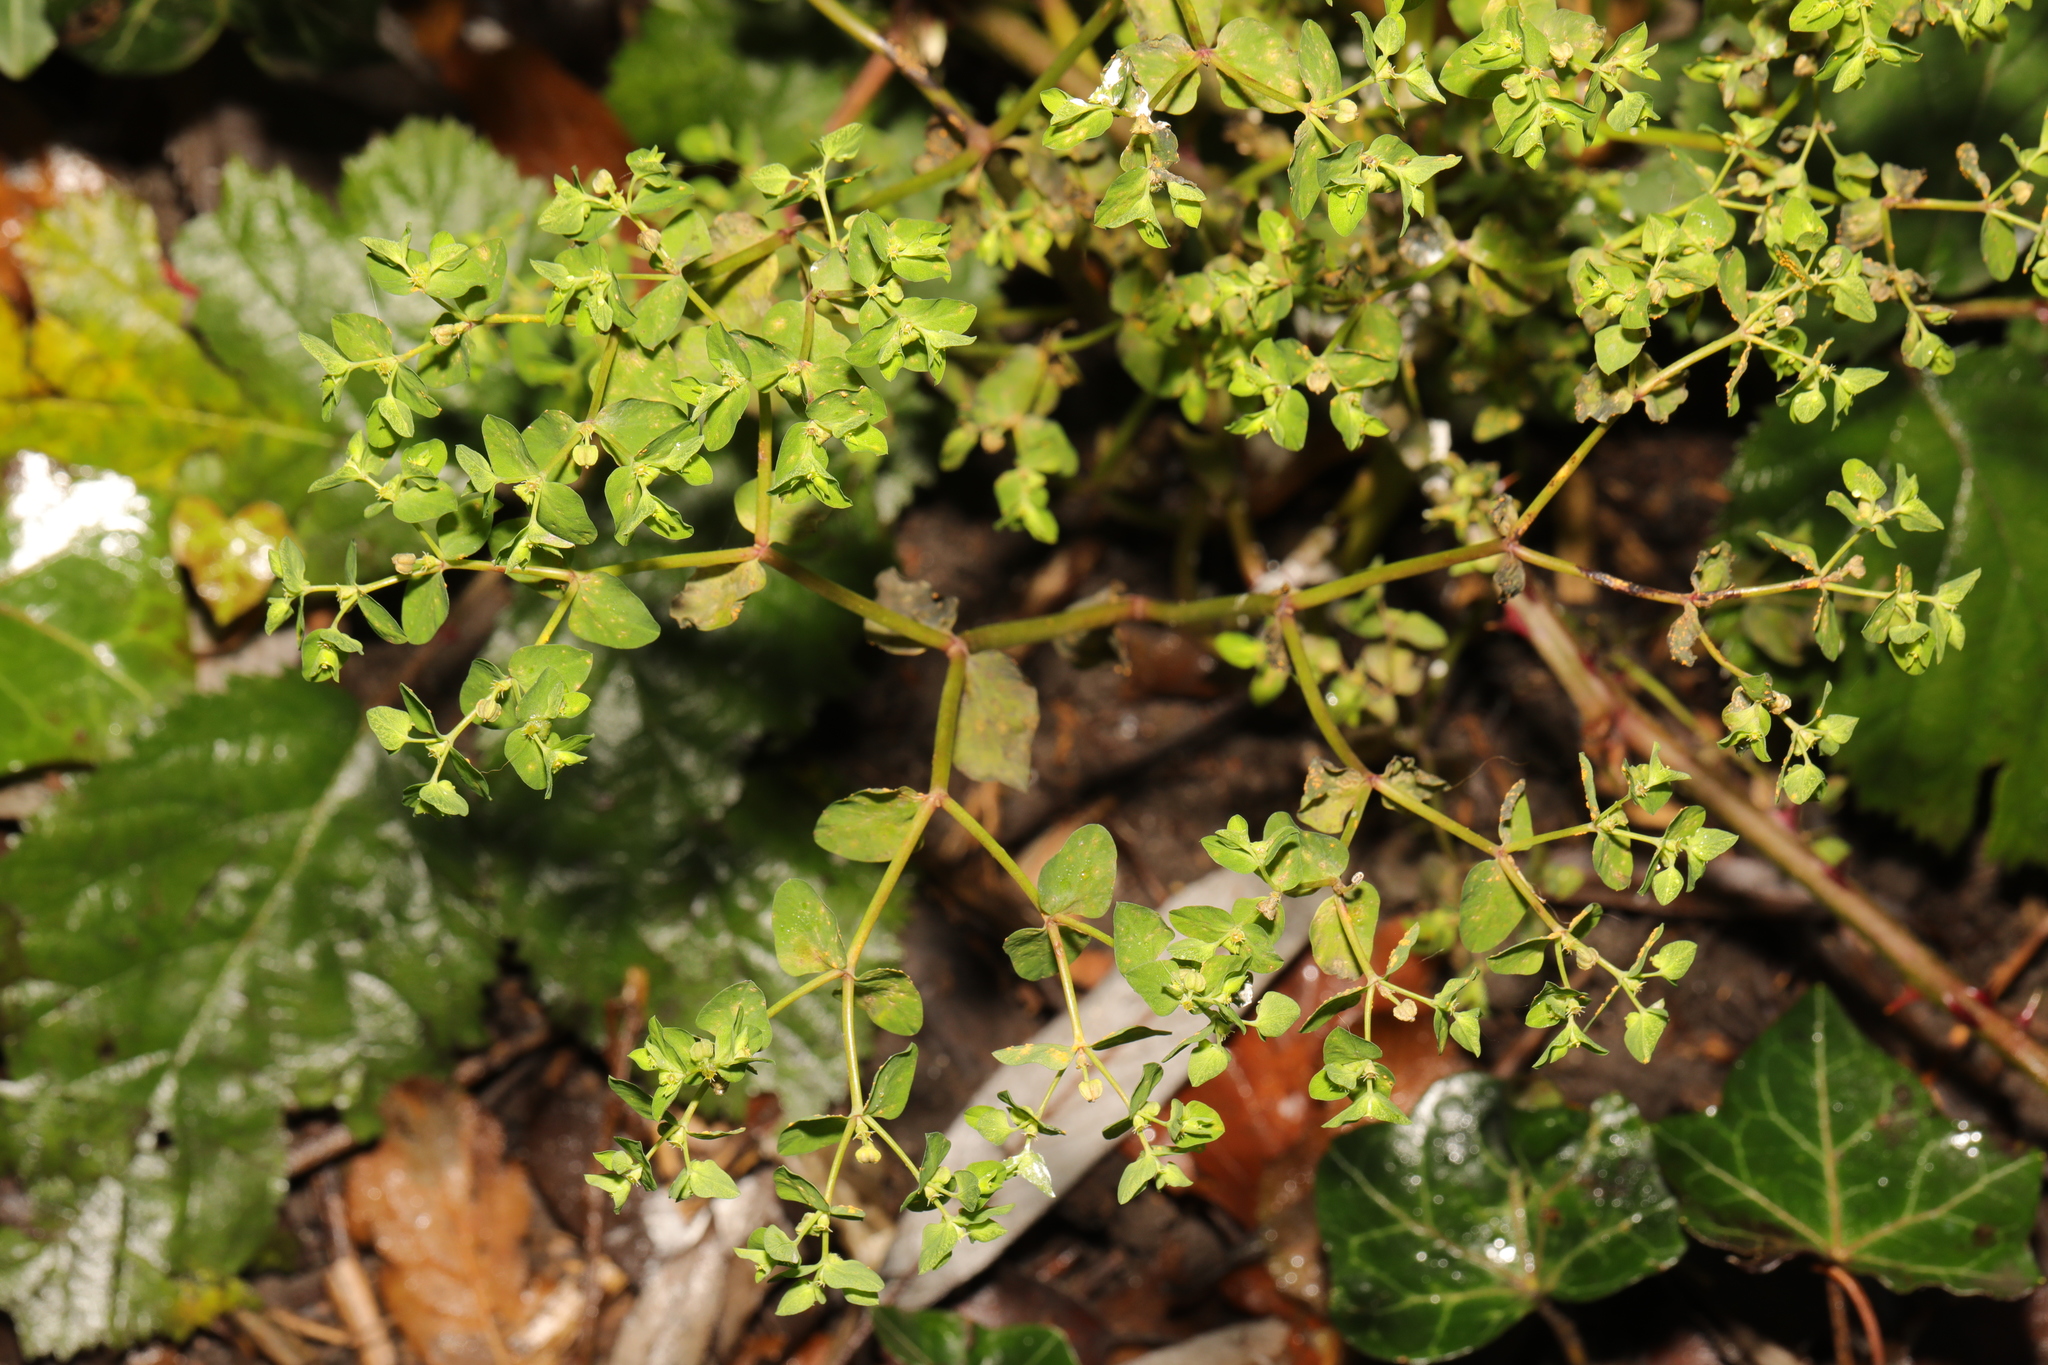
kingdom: Plantae
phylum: Tracheophyta
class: Magnoliopsida
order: Malpighiales
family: Euphorbiaceae
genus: Euphorbia
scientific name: Euphorbia peplus
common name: Petty spurge
